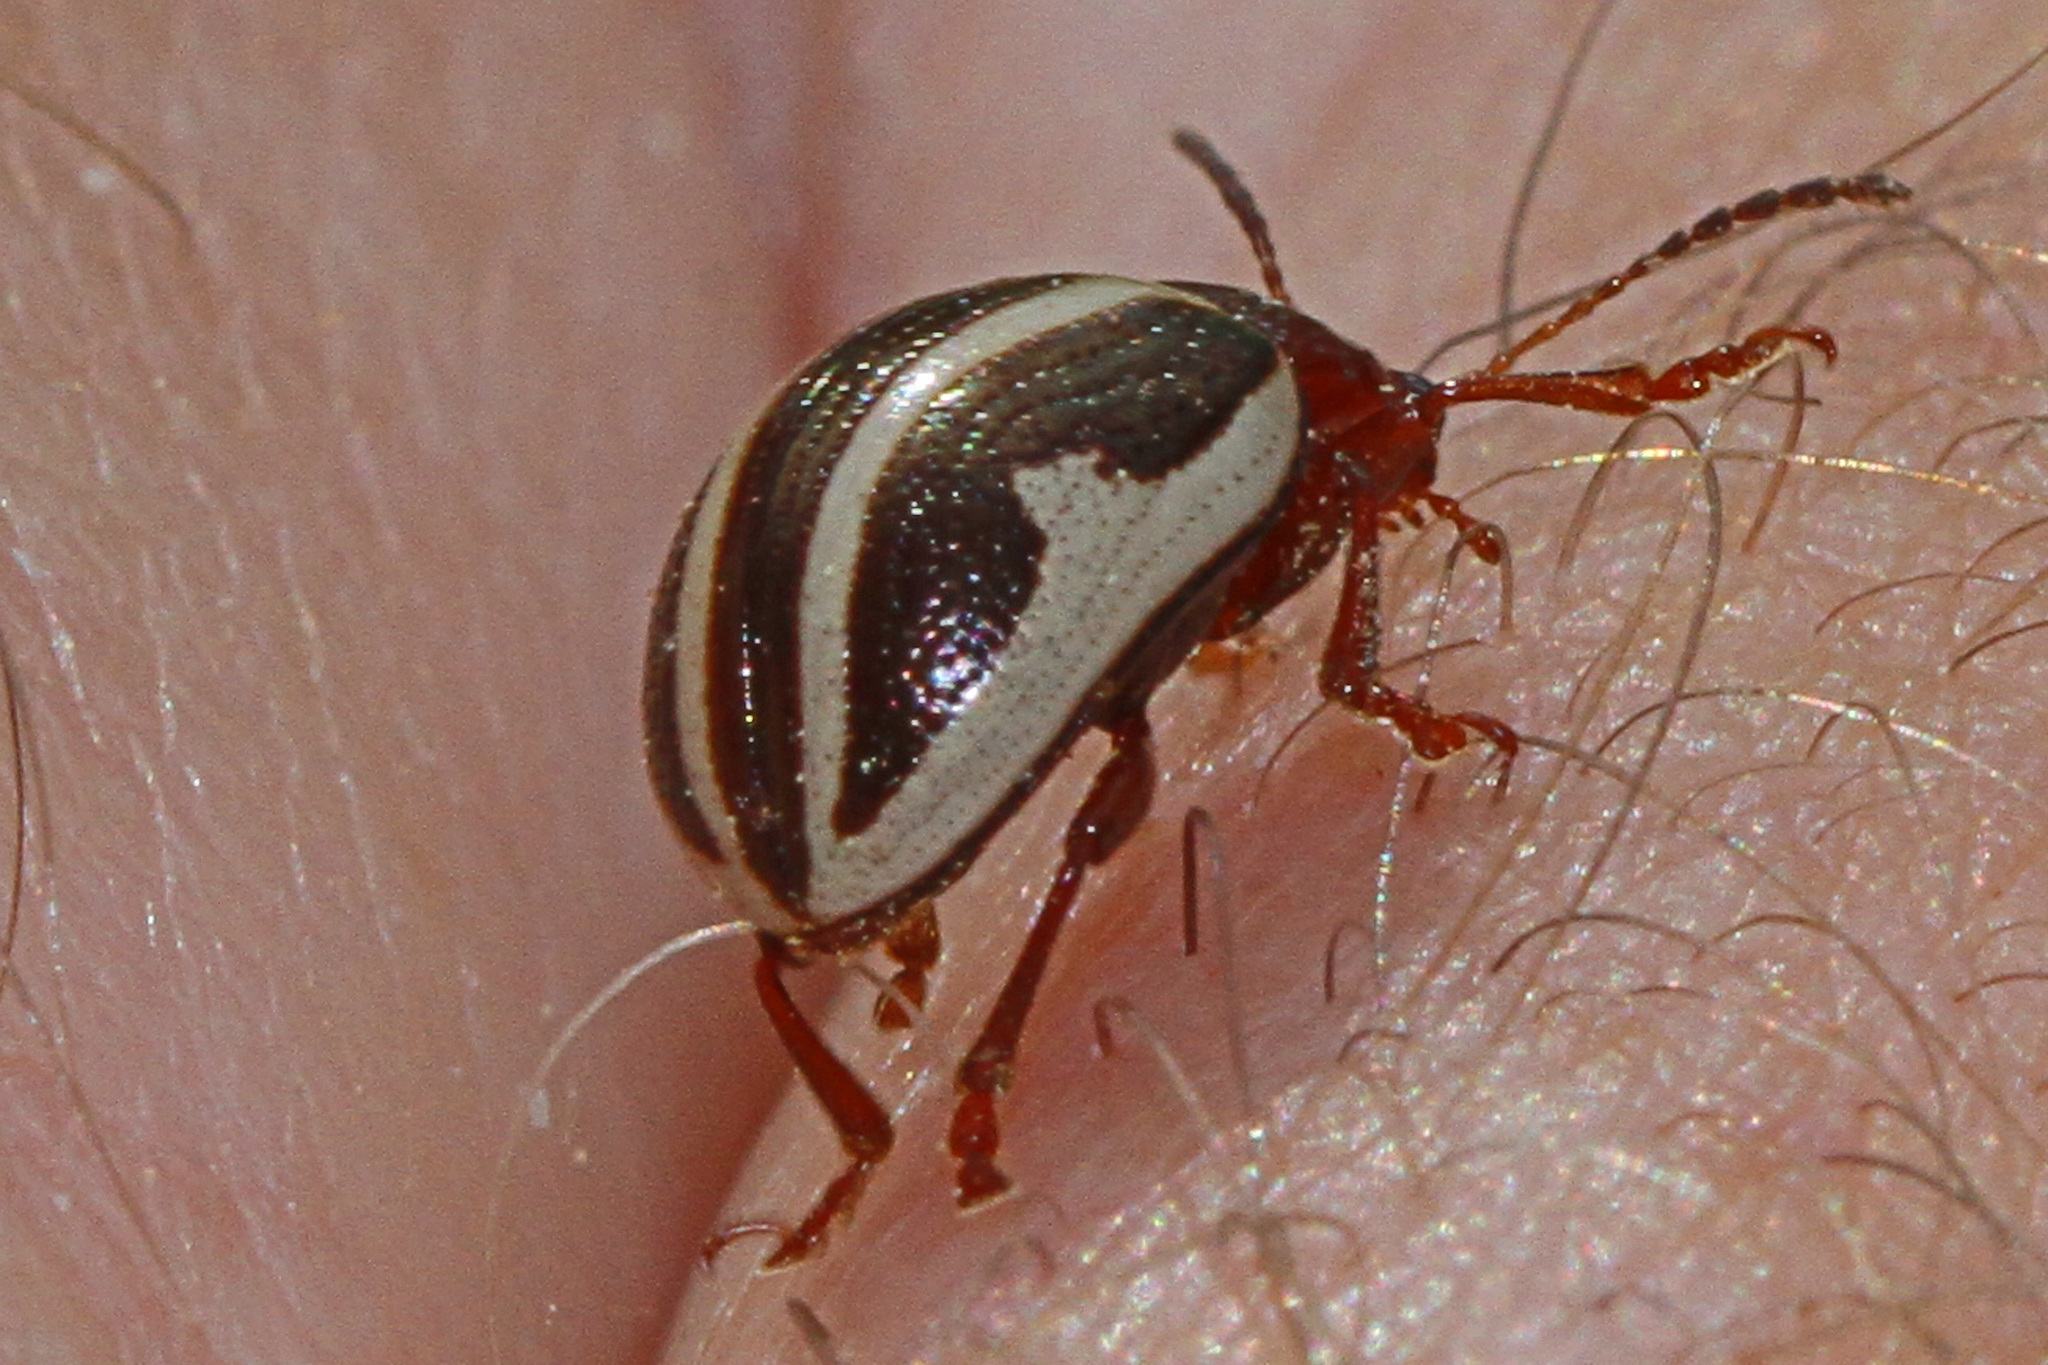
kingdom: Animalia
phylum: Arthropoda
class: Insecta
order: Coleoptera
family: Chrysomelidae
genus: Calligrapha
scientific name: Calligrapha
